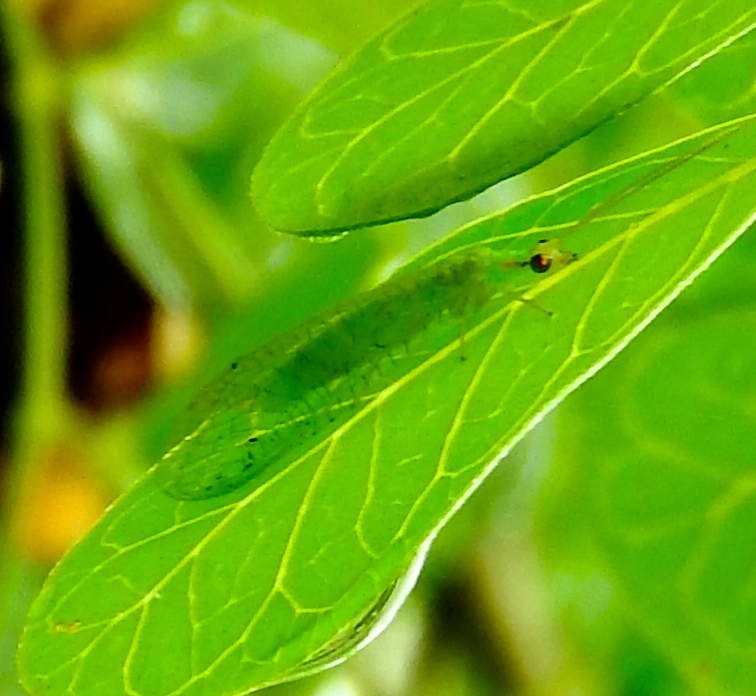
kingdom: Animalia
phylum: Arthropoda
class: Insecta
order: Neuroptera
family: Chrysopidae
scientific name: Chrysopidae
